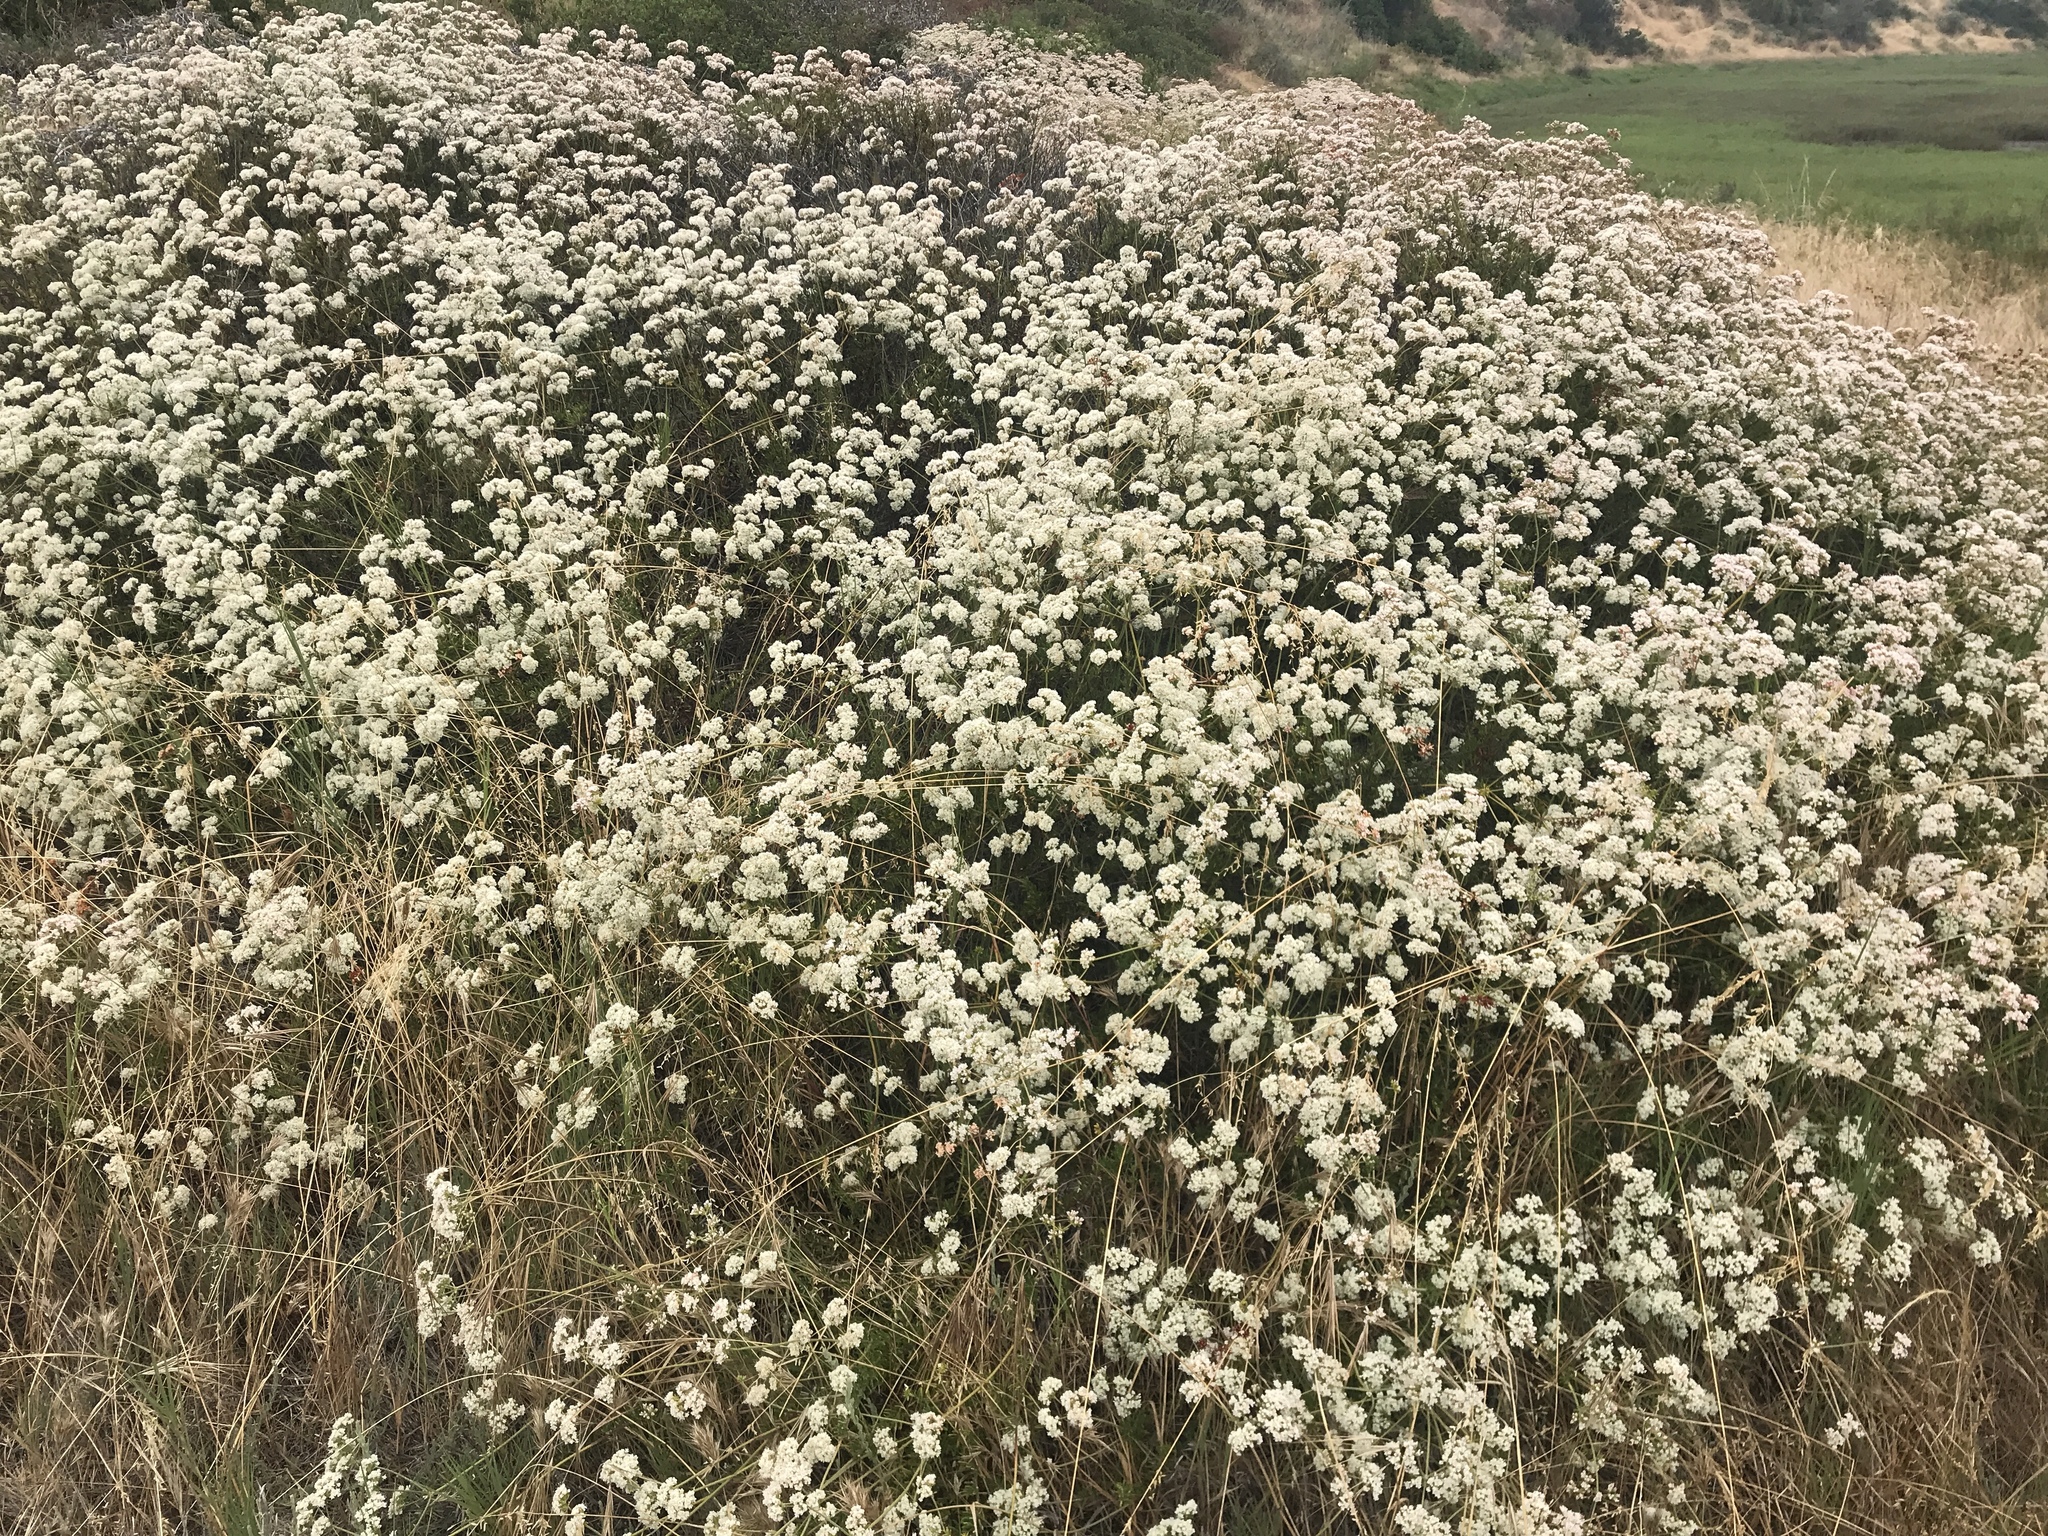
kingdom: Plantae
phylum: Tracheophyta
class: Magnoliopsida
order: Caryophyllales
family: Polygonaceae
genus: Eriogonum
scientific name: Eriogonum fasciculatum
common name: California wild buckwheat
